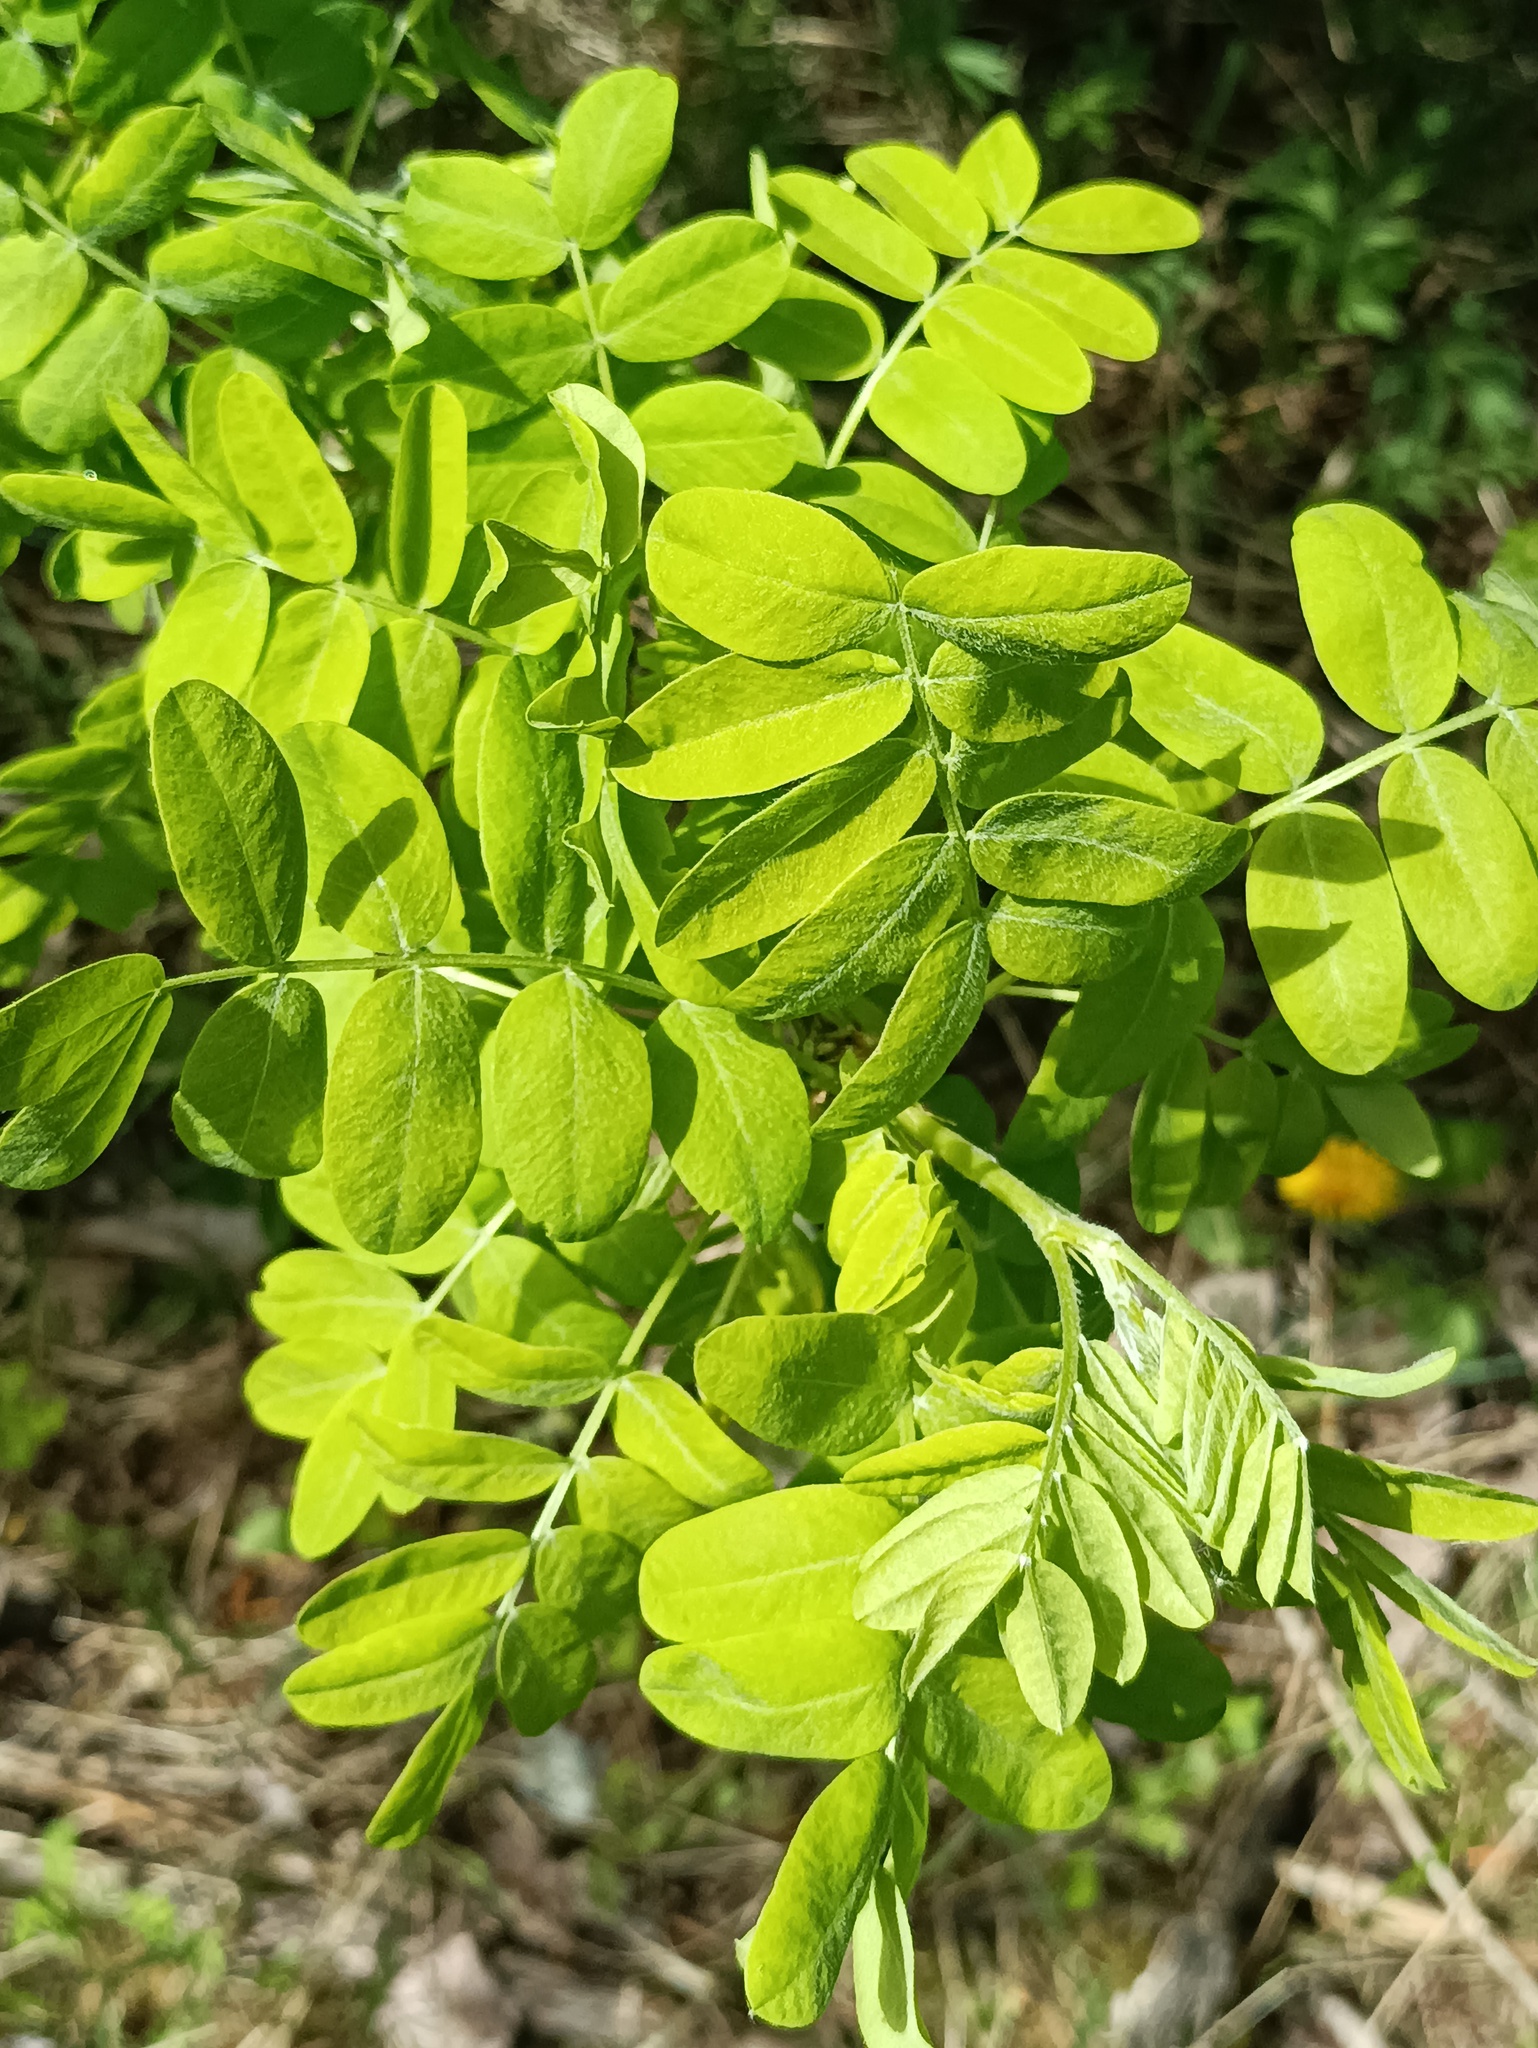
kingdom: Plantae
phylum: Tracheophyta
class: Magnoliopsida
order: Fabales
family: Fabaceae
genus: Caragana
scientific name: Caragana arborescens
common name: Siberian peashrub
